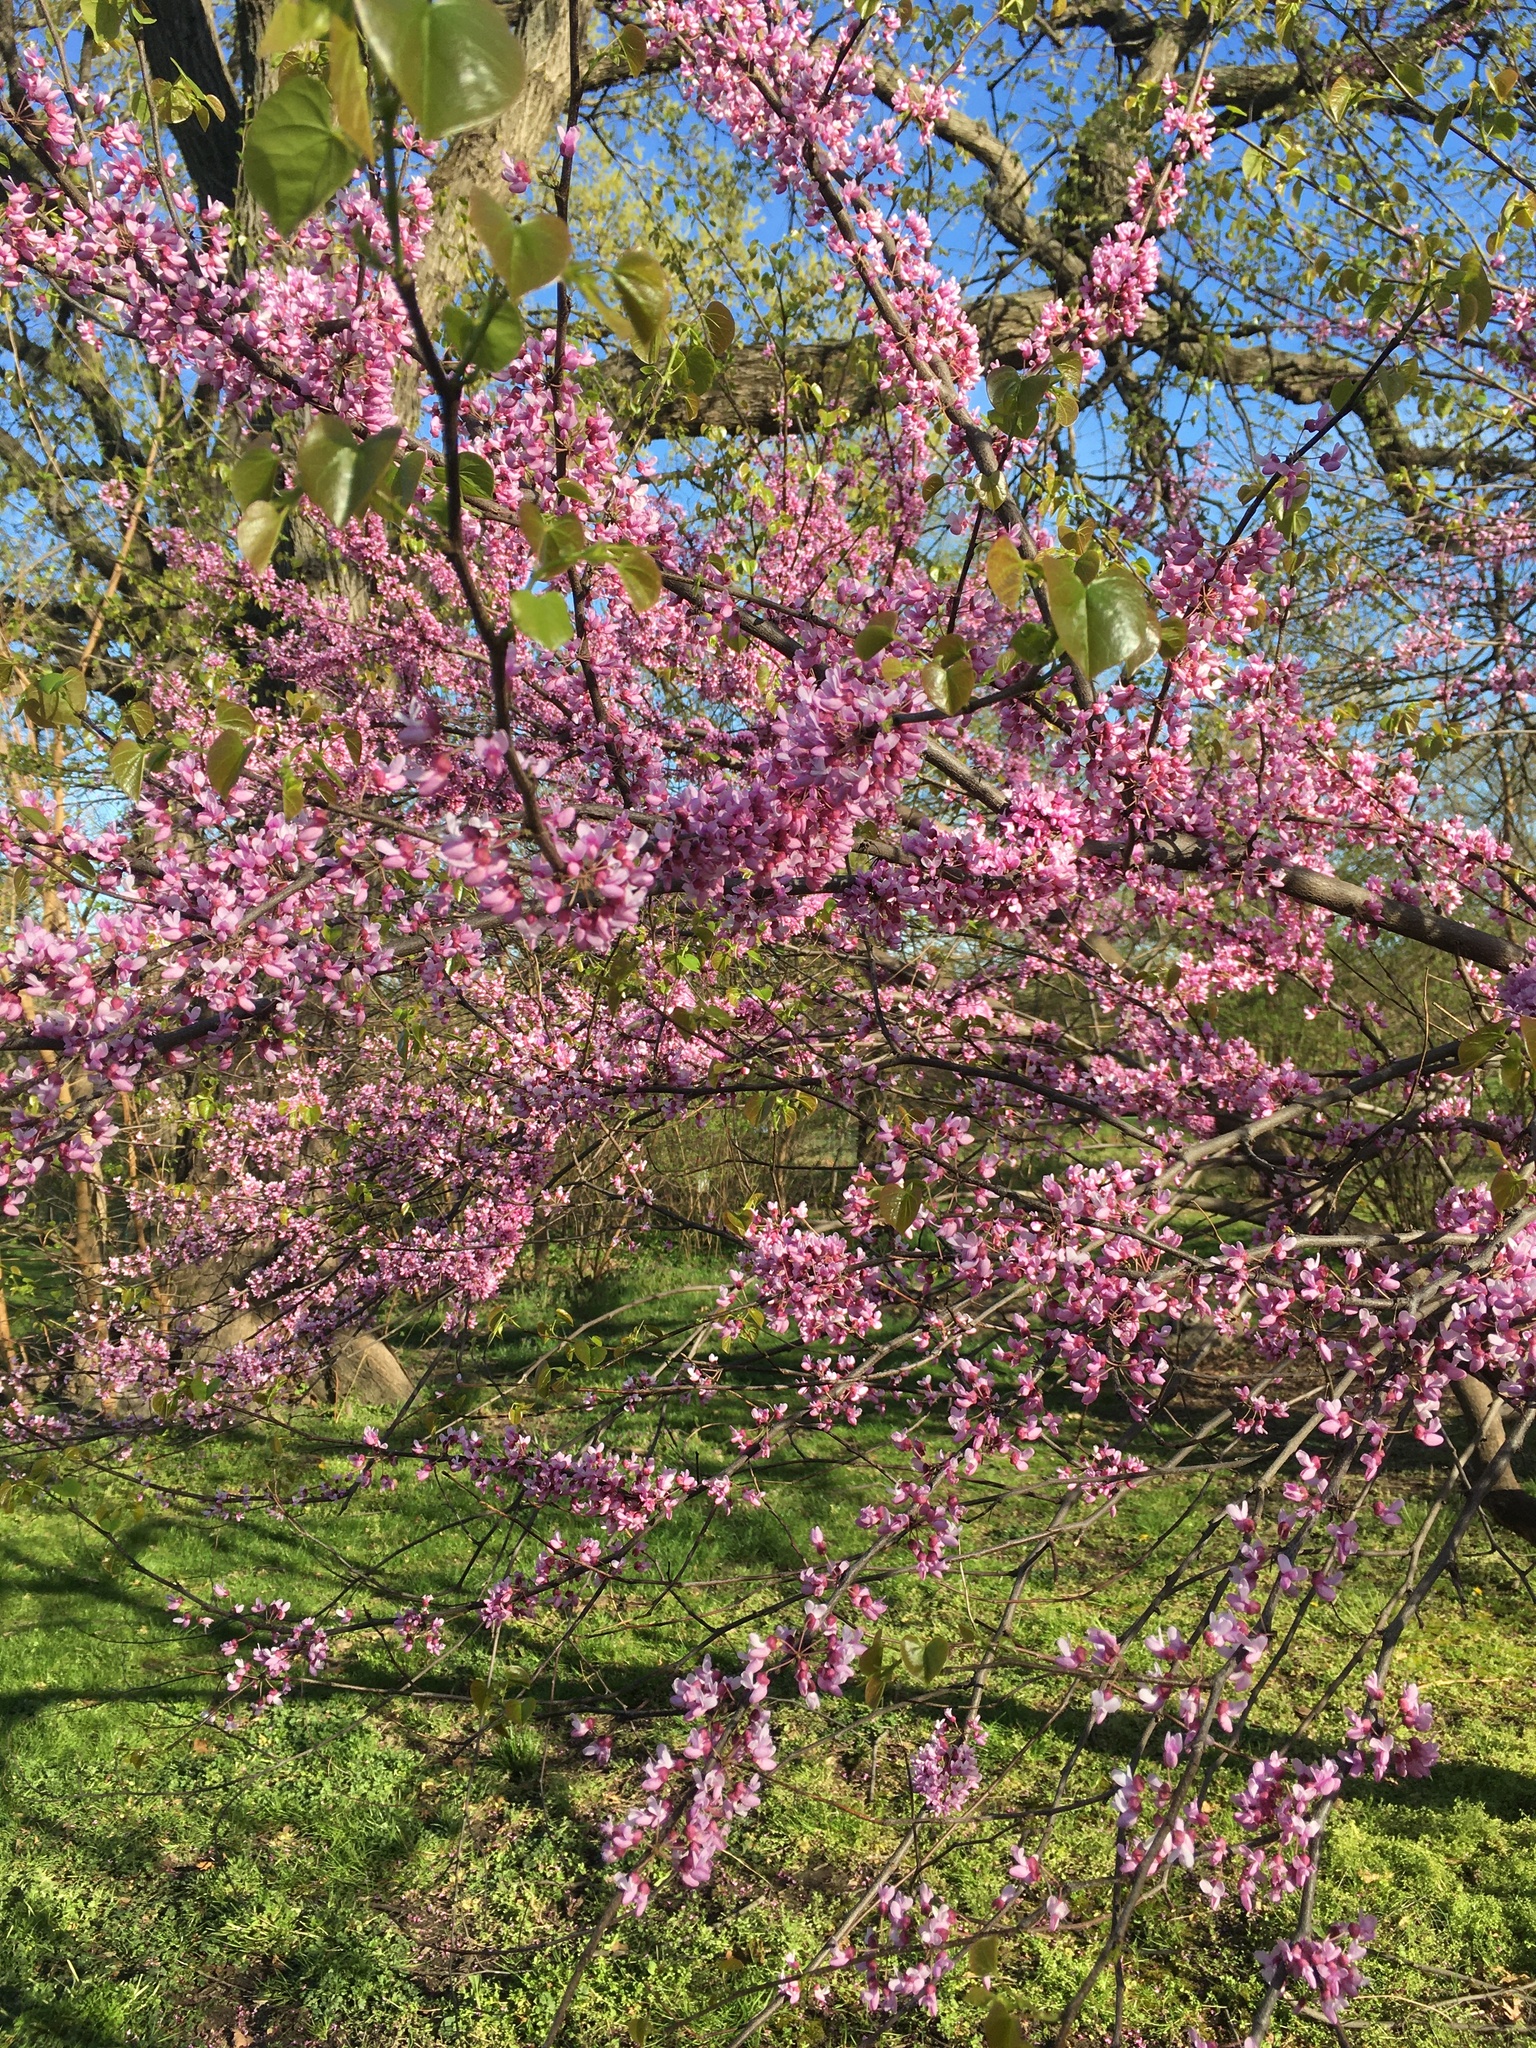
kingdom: Plantae
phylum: Tracheophyta
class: Magnoliopsida
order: Fabales
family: Fabaceae
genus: Cercis
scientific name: Cercis canadensis
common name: Eastern redbud
